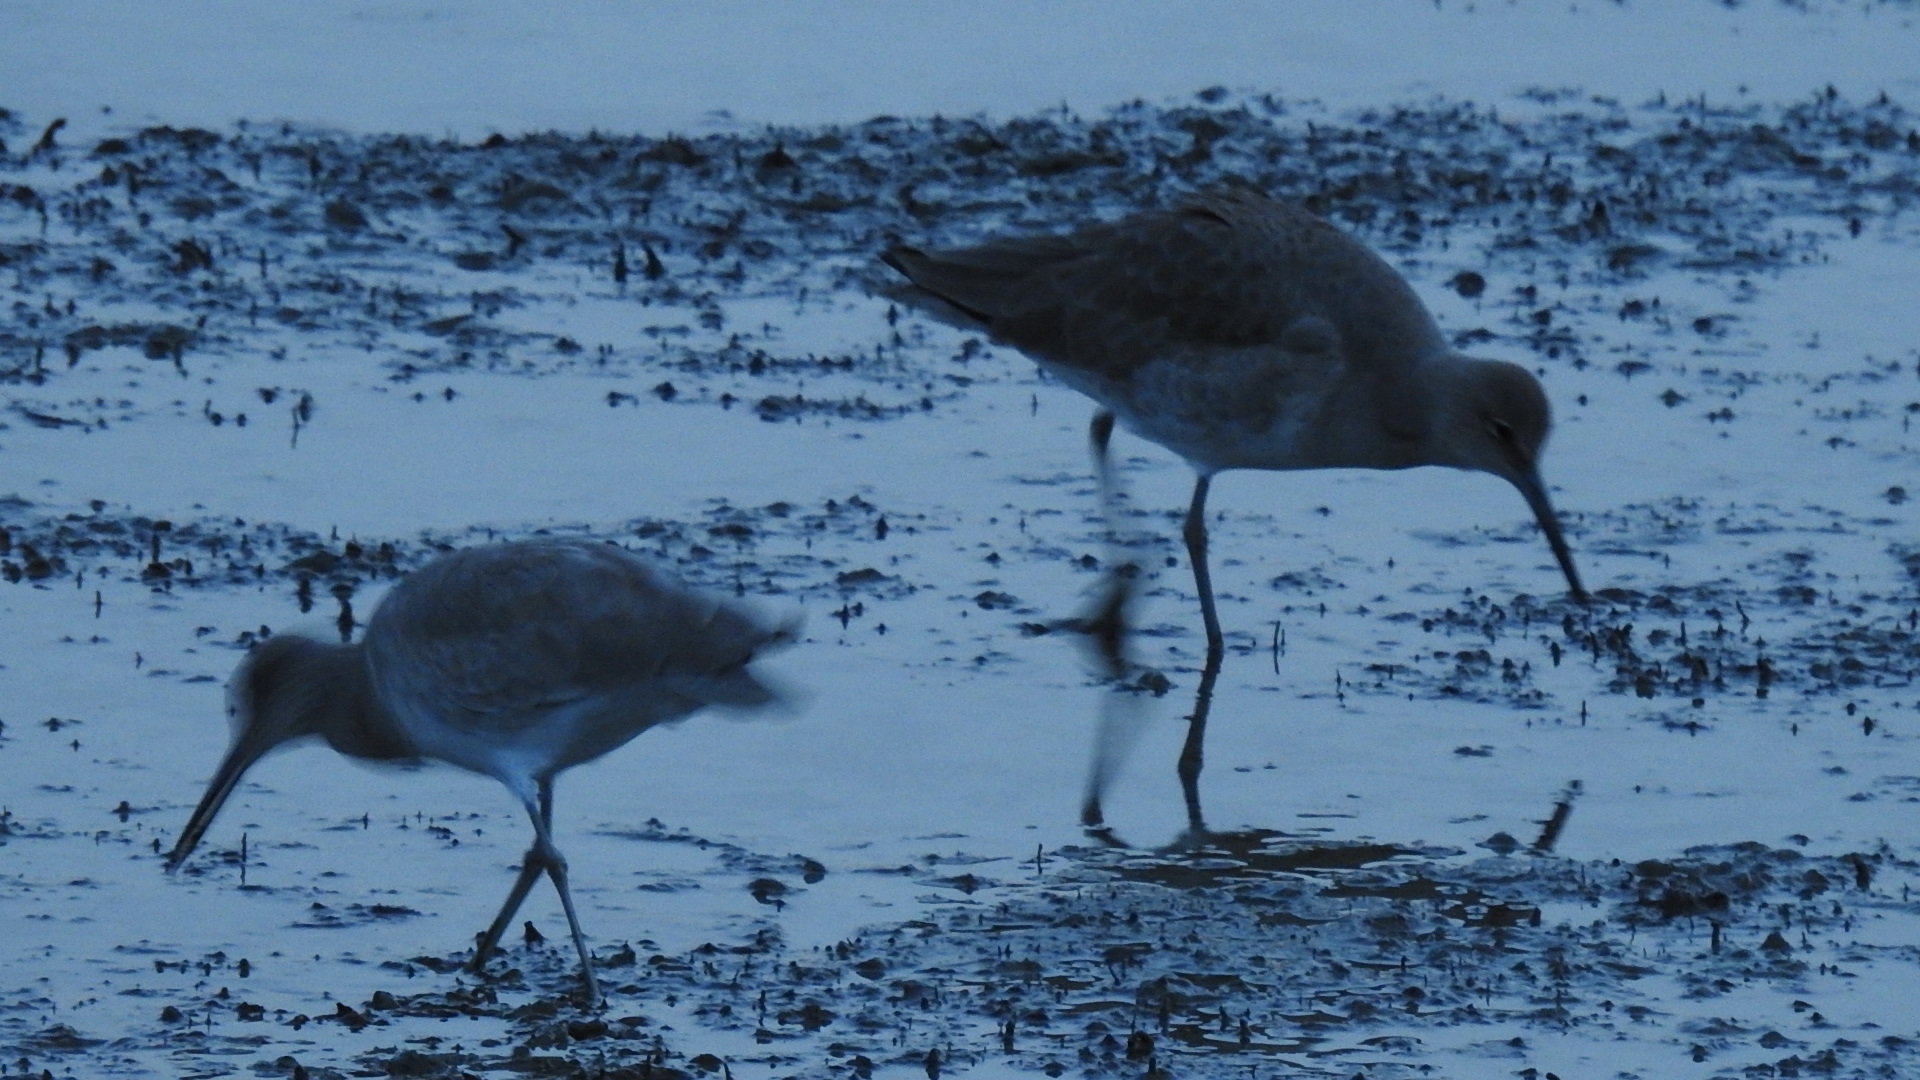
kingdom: Animalia
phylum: Chordata
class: Aves
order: Charadriiformes
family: Scolopacidae
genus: Tringa
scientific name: Tringa semipalmata
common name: Willet
